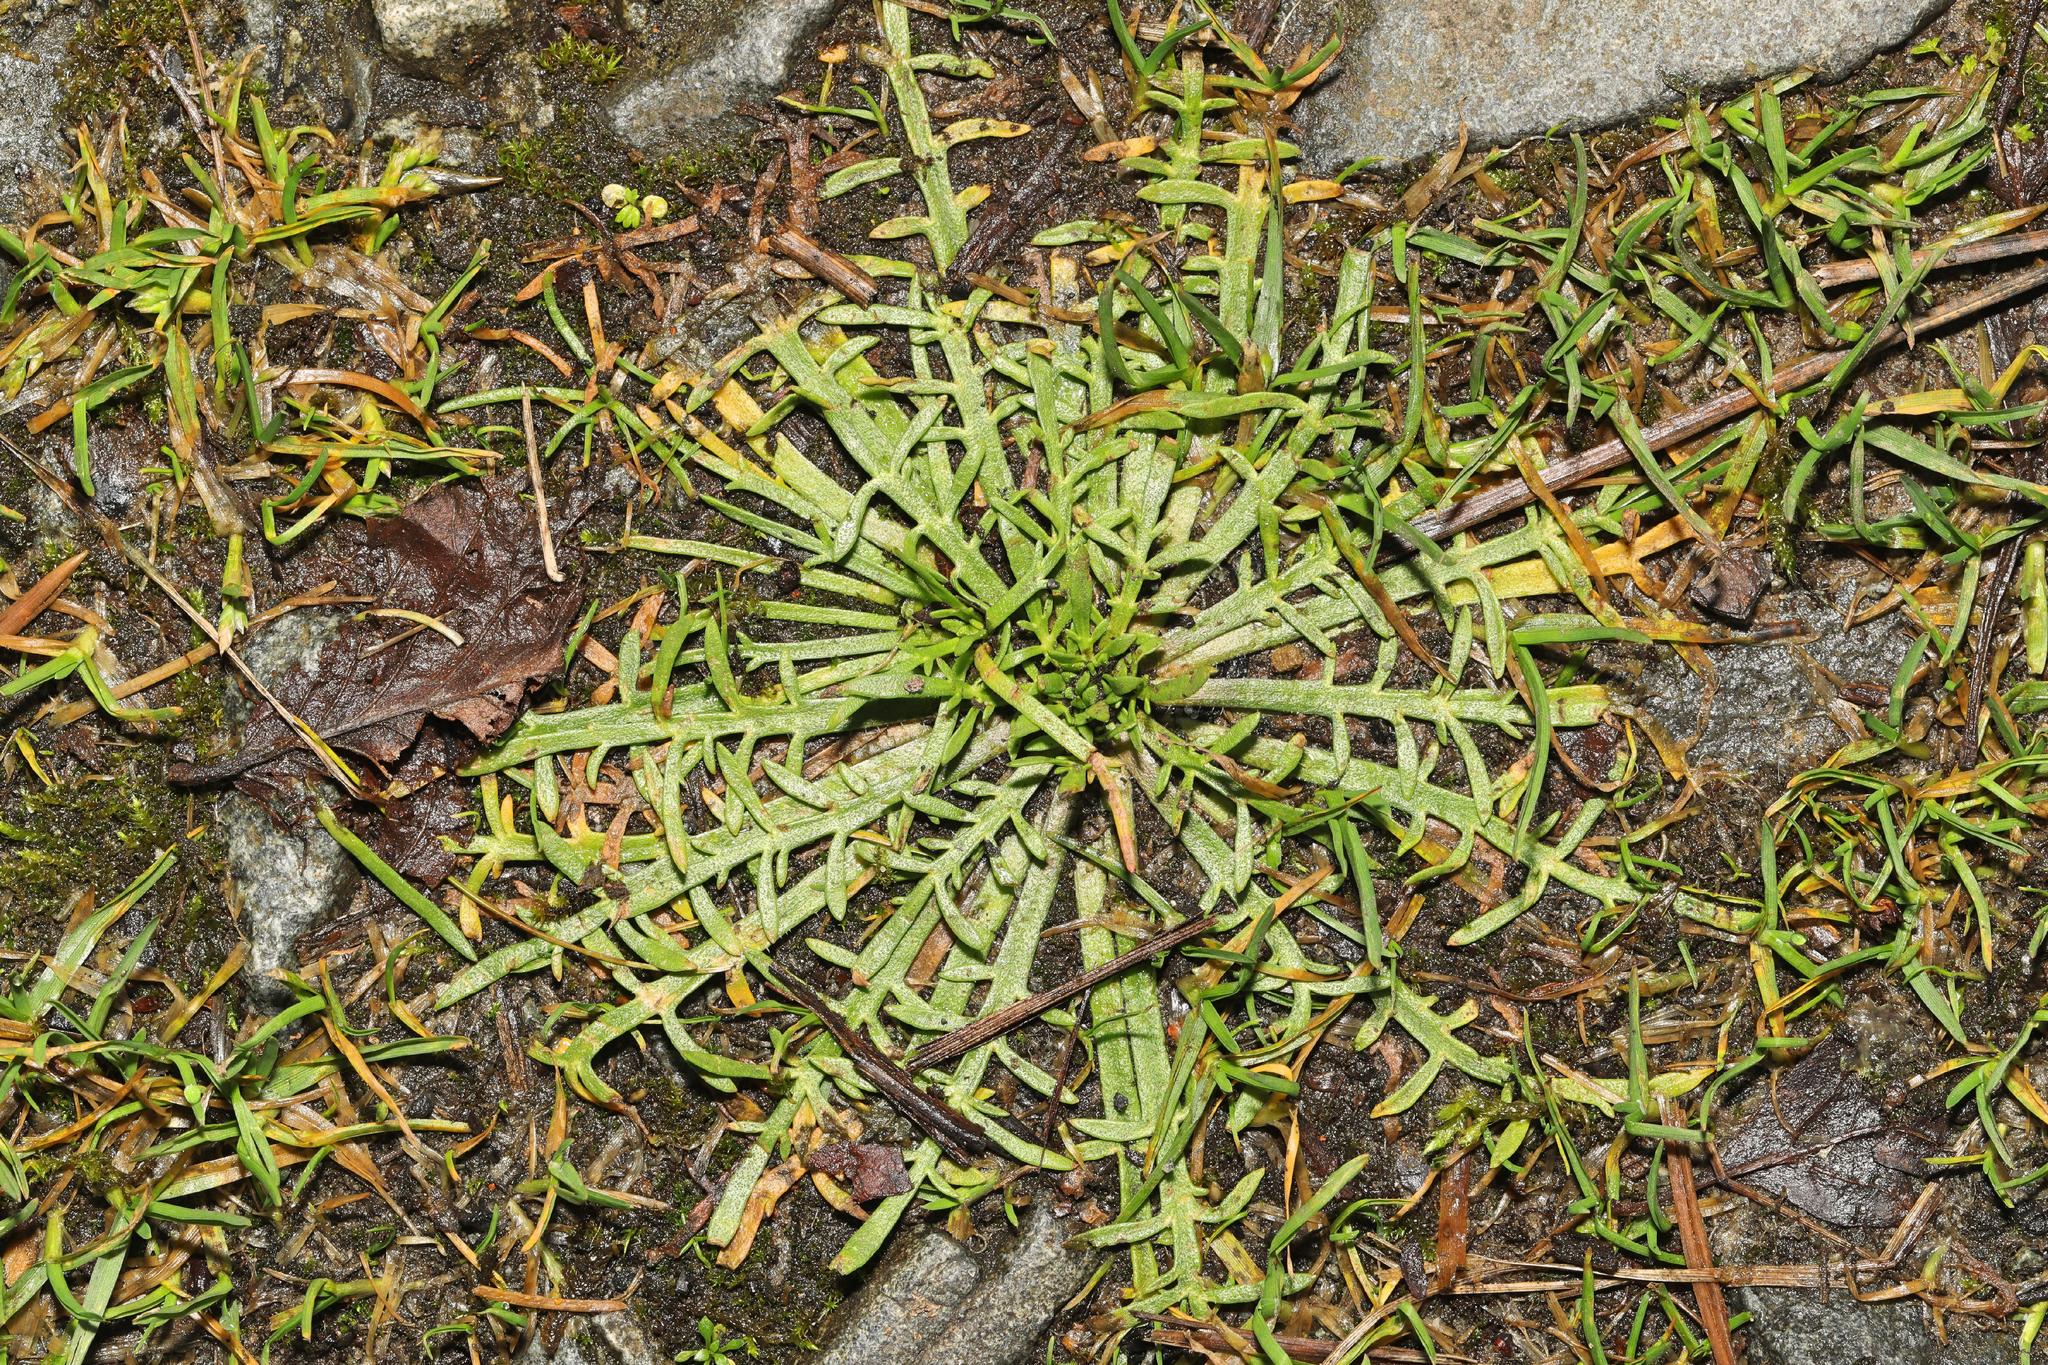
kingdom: Plantae
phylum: Tracheophyta
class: Magnoliopsida
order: Lamiales
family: Plantaginaceae
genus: Plantago
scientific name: Plantago coronopus
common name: Buck's-horn plantain
